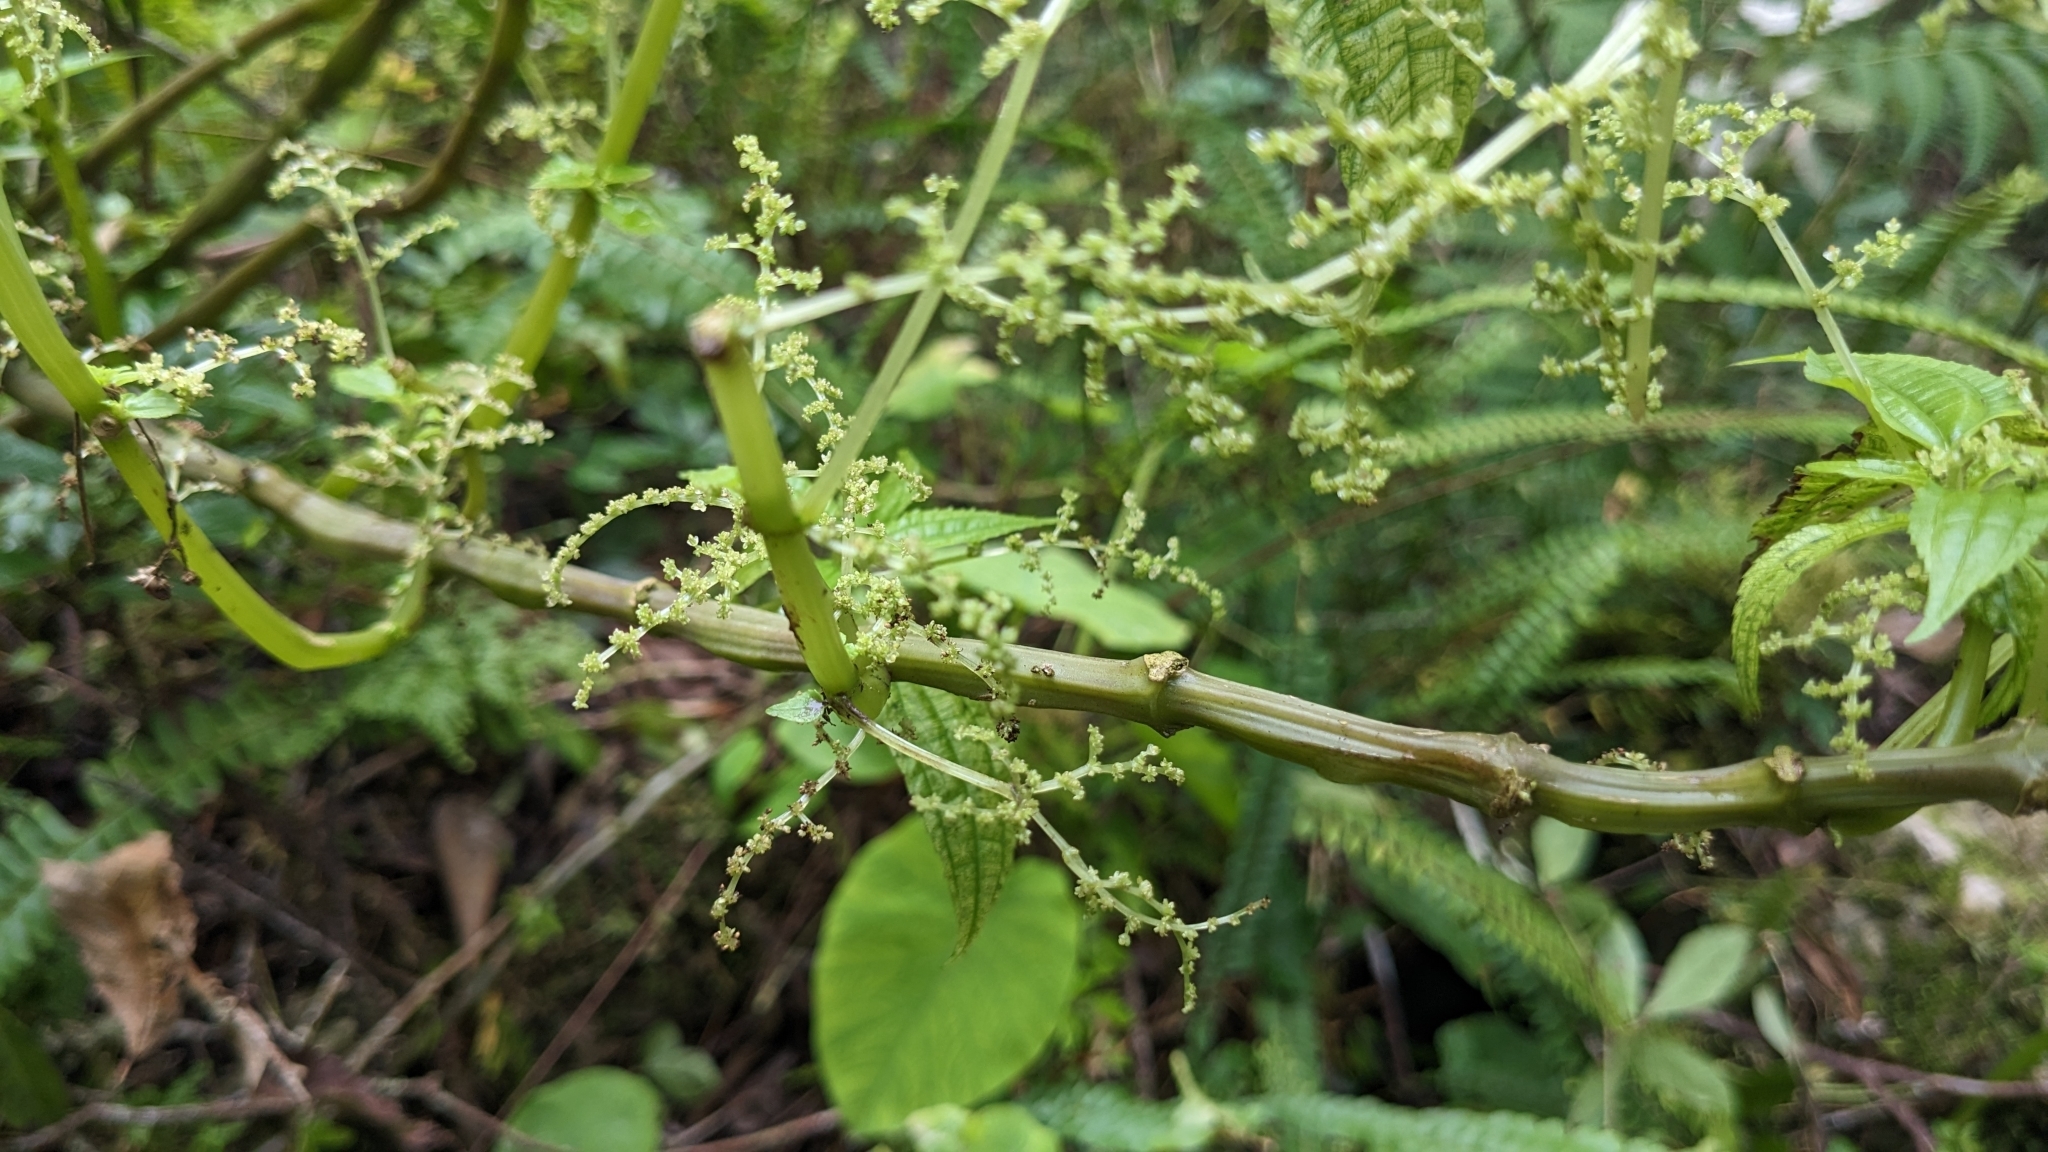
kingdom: Plantae
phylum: Tracheophyta
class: Magnoliopsida
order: Rosales
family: Urticaceae
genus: Pilea
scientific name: Pilea melastomoides
